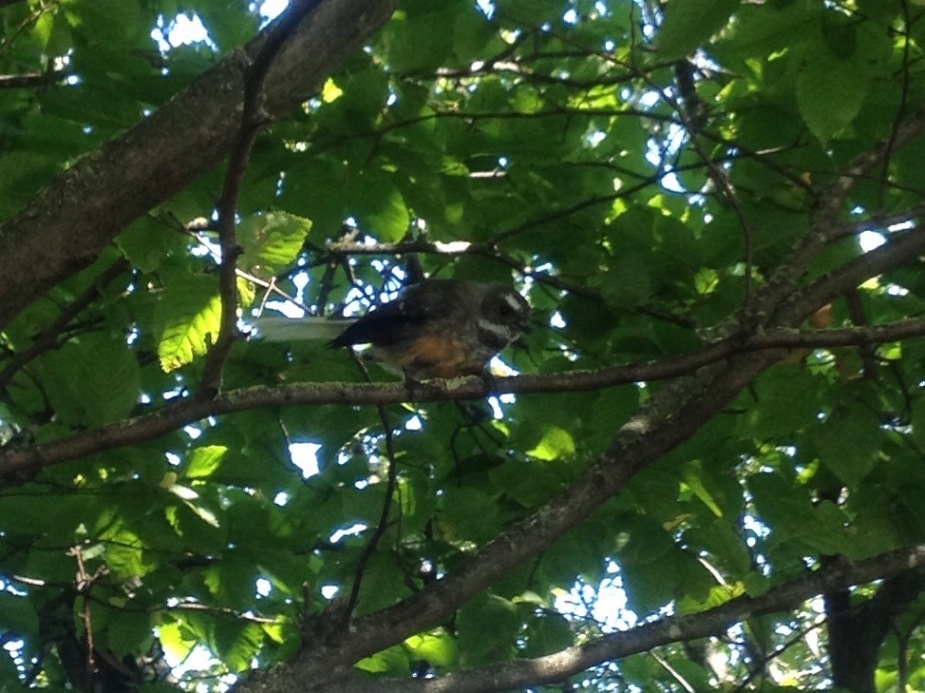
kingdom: Animalia
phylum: Chordata
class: Aves
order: Passeriformes
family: Rhipiduridae
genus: Rhipidura
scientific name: Rhipidura fuliginosa
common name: New zealand fantail
